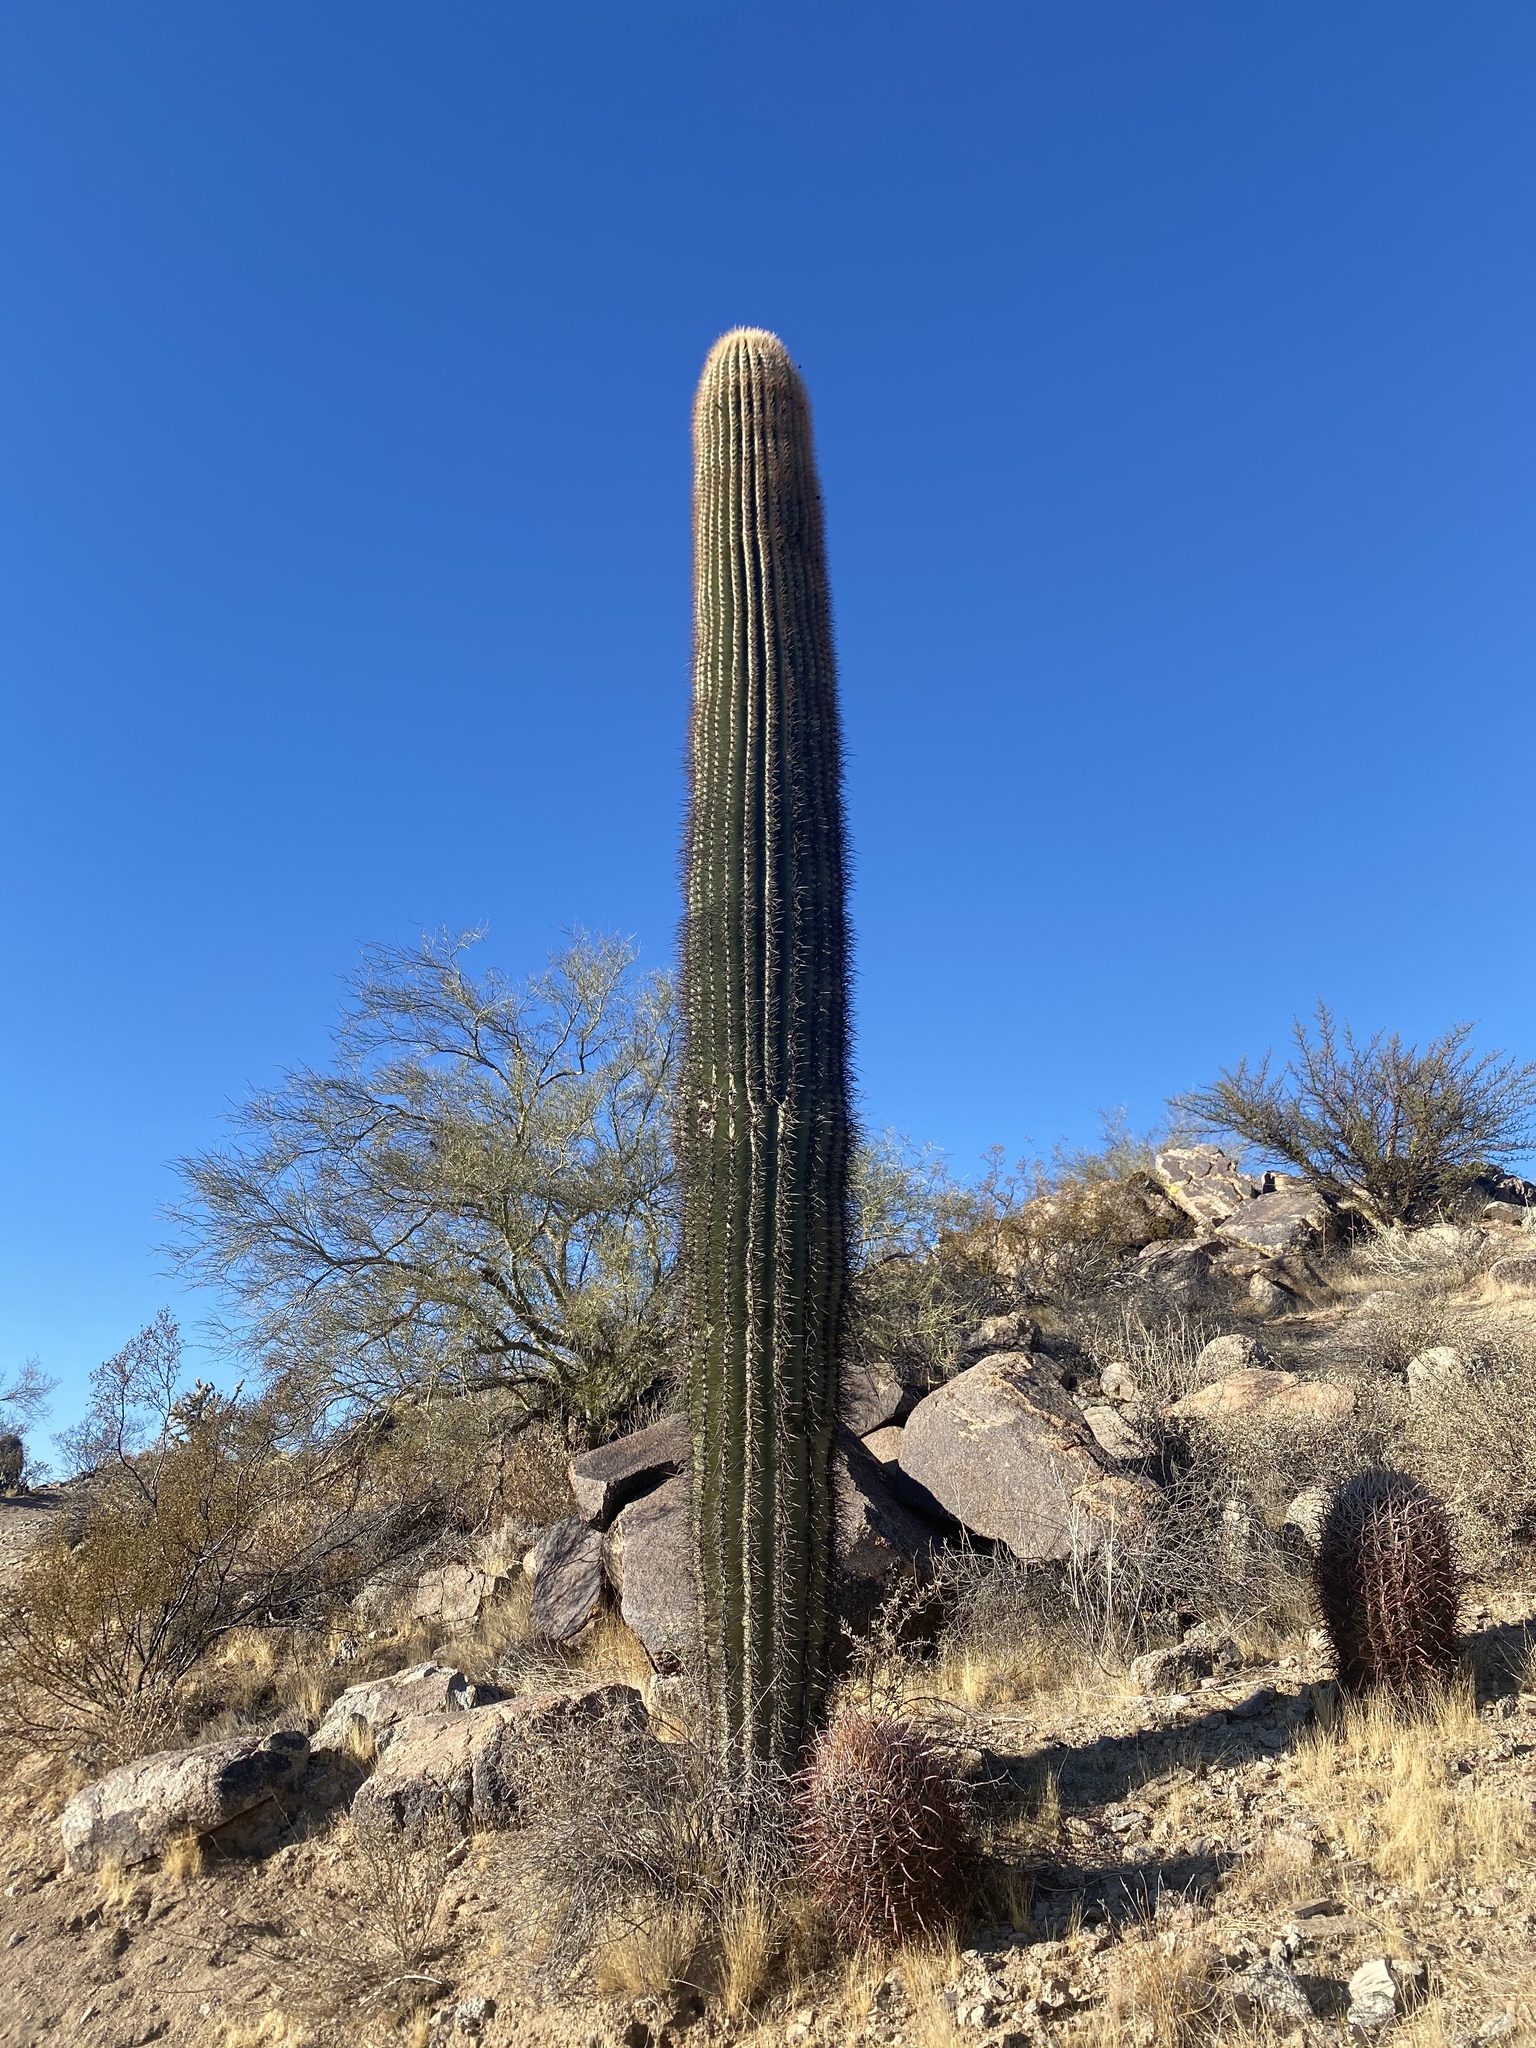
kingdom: Plantae
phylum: Tracheophyta
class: Magnoliopsida
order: Caryophyllales
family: Cactaceae
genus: Carnegiea
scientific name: Carnegiea gigantea
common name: Saguaro
